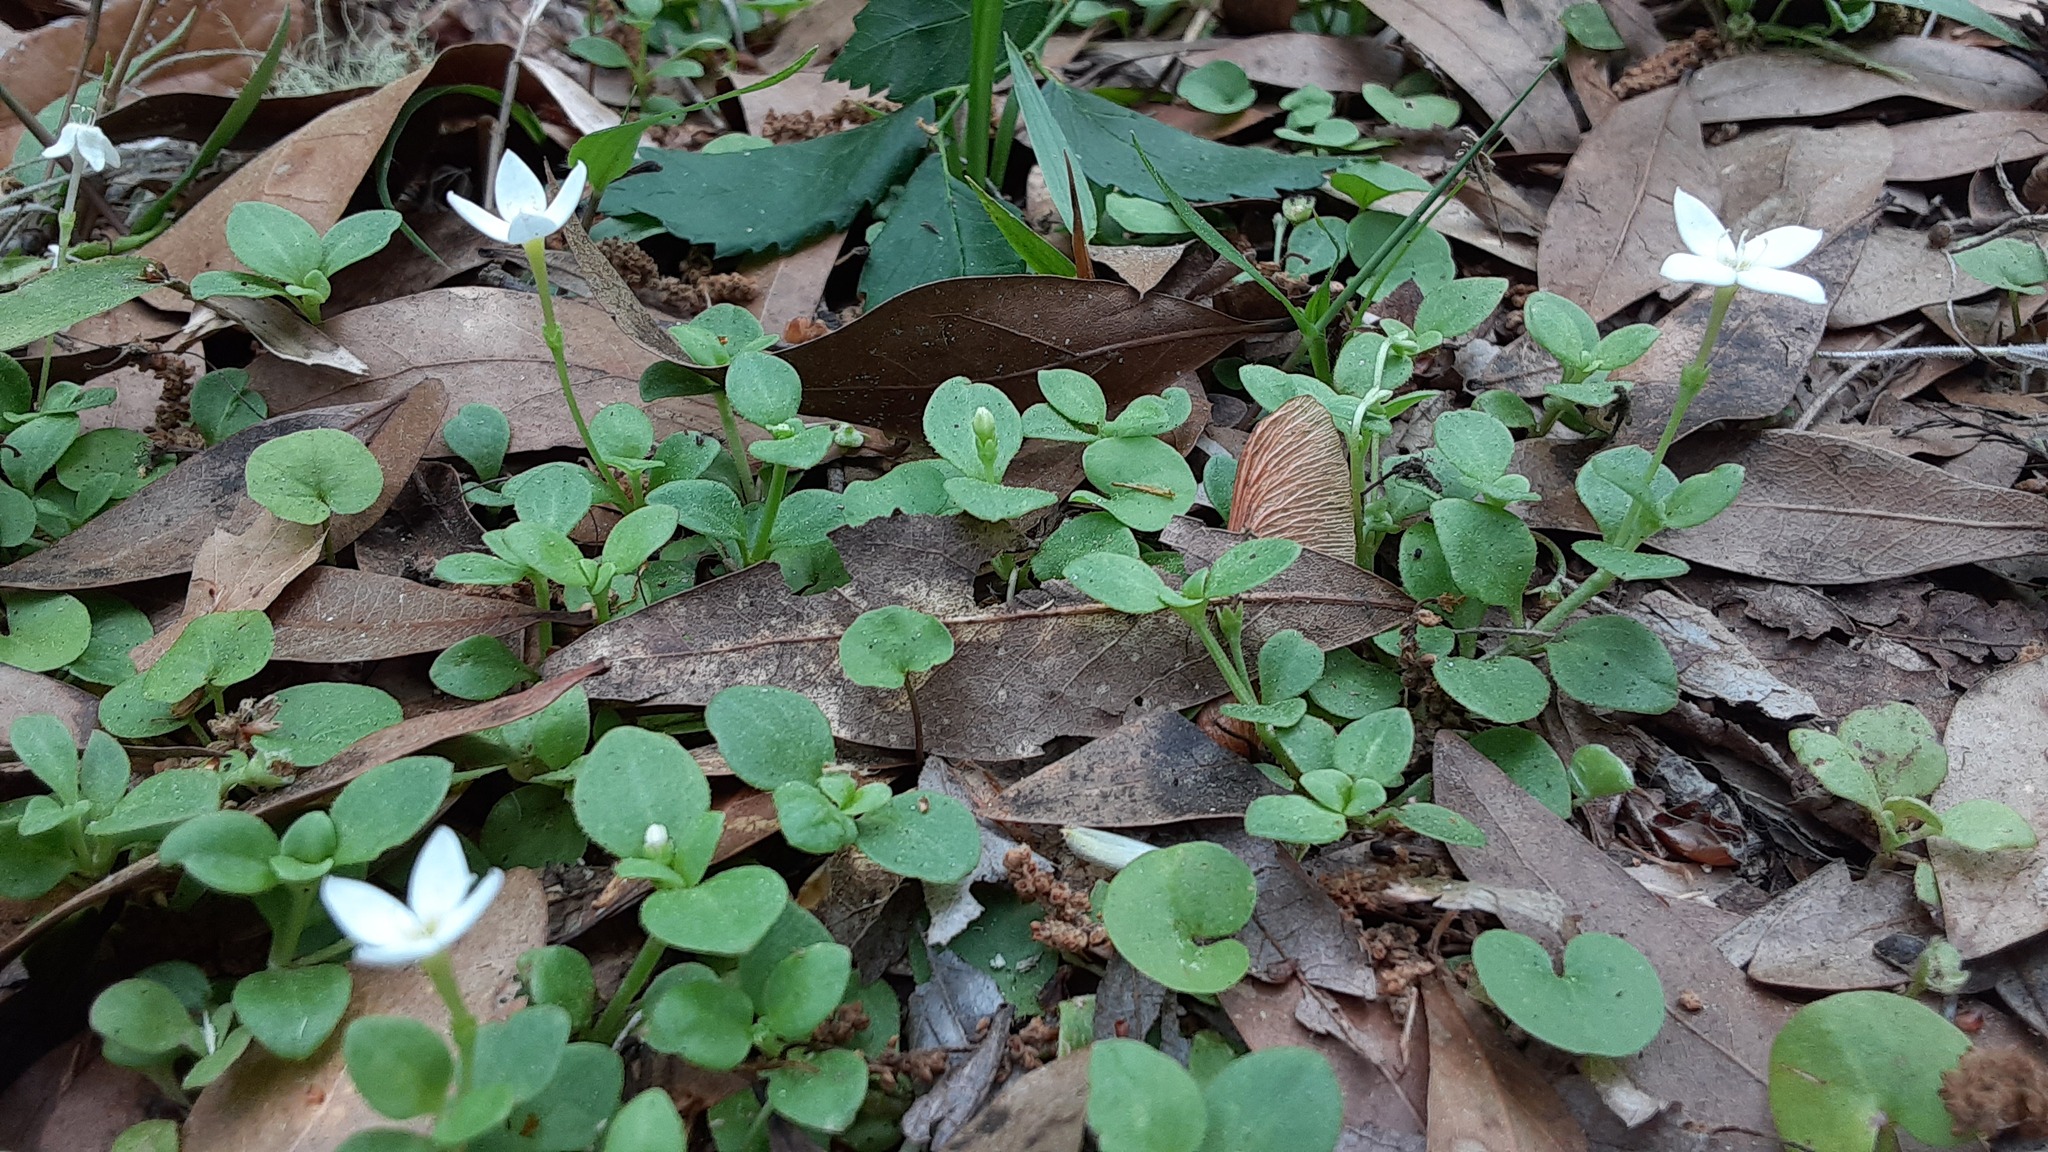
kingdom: Plantae
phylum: Tracheophyta
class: Magnoliopsida
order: Gentianales
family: Rubiaceae
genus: Houstonia
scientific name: Houstonia procumbens
